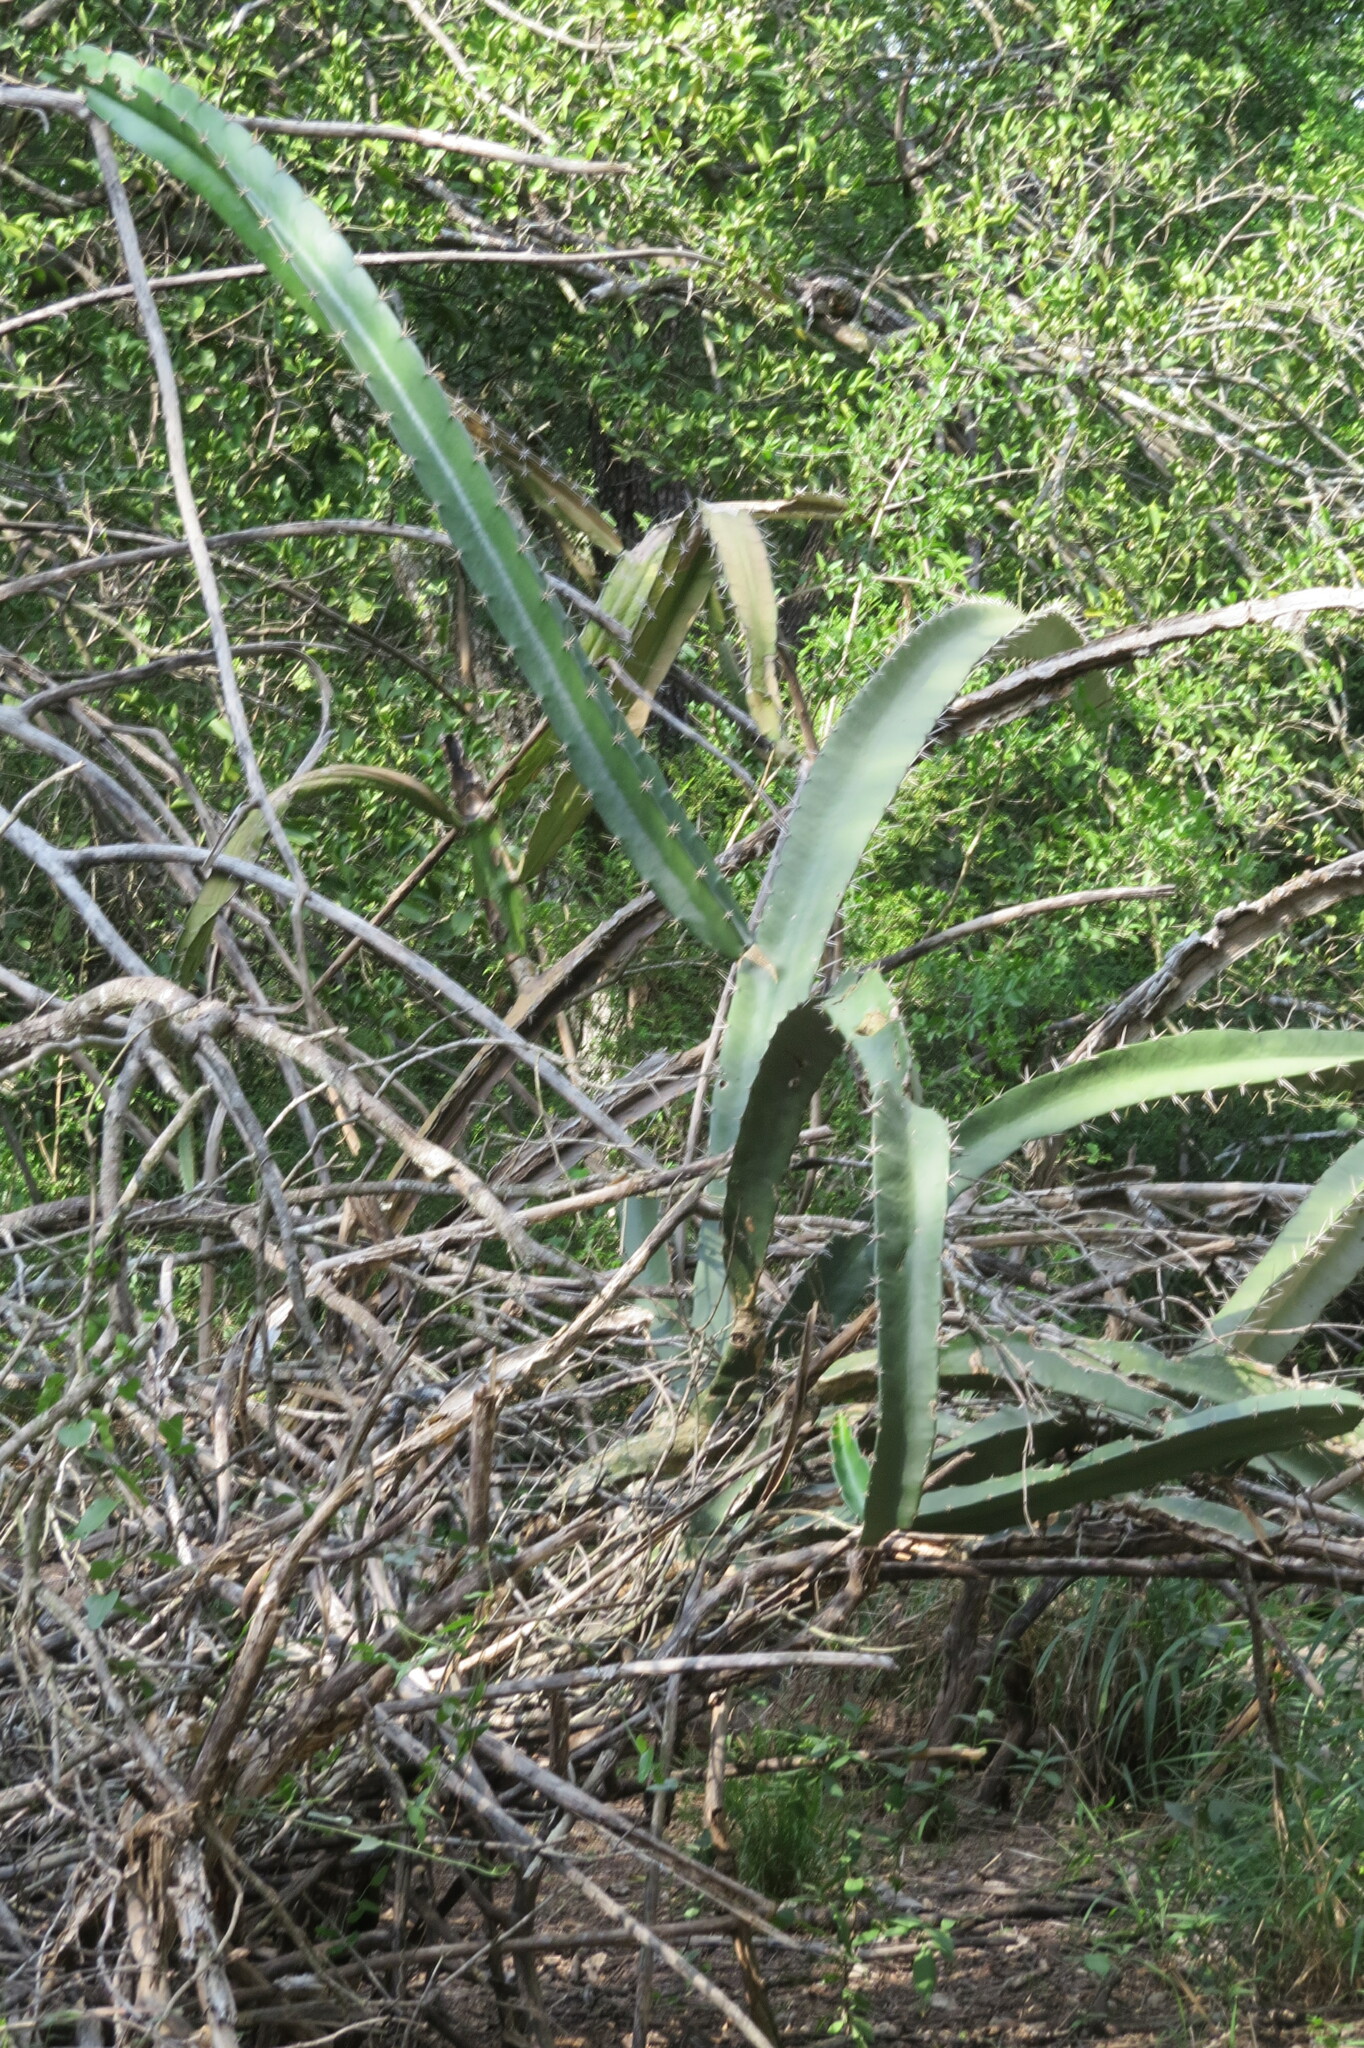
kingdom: Plantae
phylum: Tracheophyta
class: Magnoliopsida
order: Caryophyllales
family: Cactaceae
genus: Acanthocereus
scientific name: Acanthocereus tetragonus
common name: Triangle cactus
